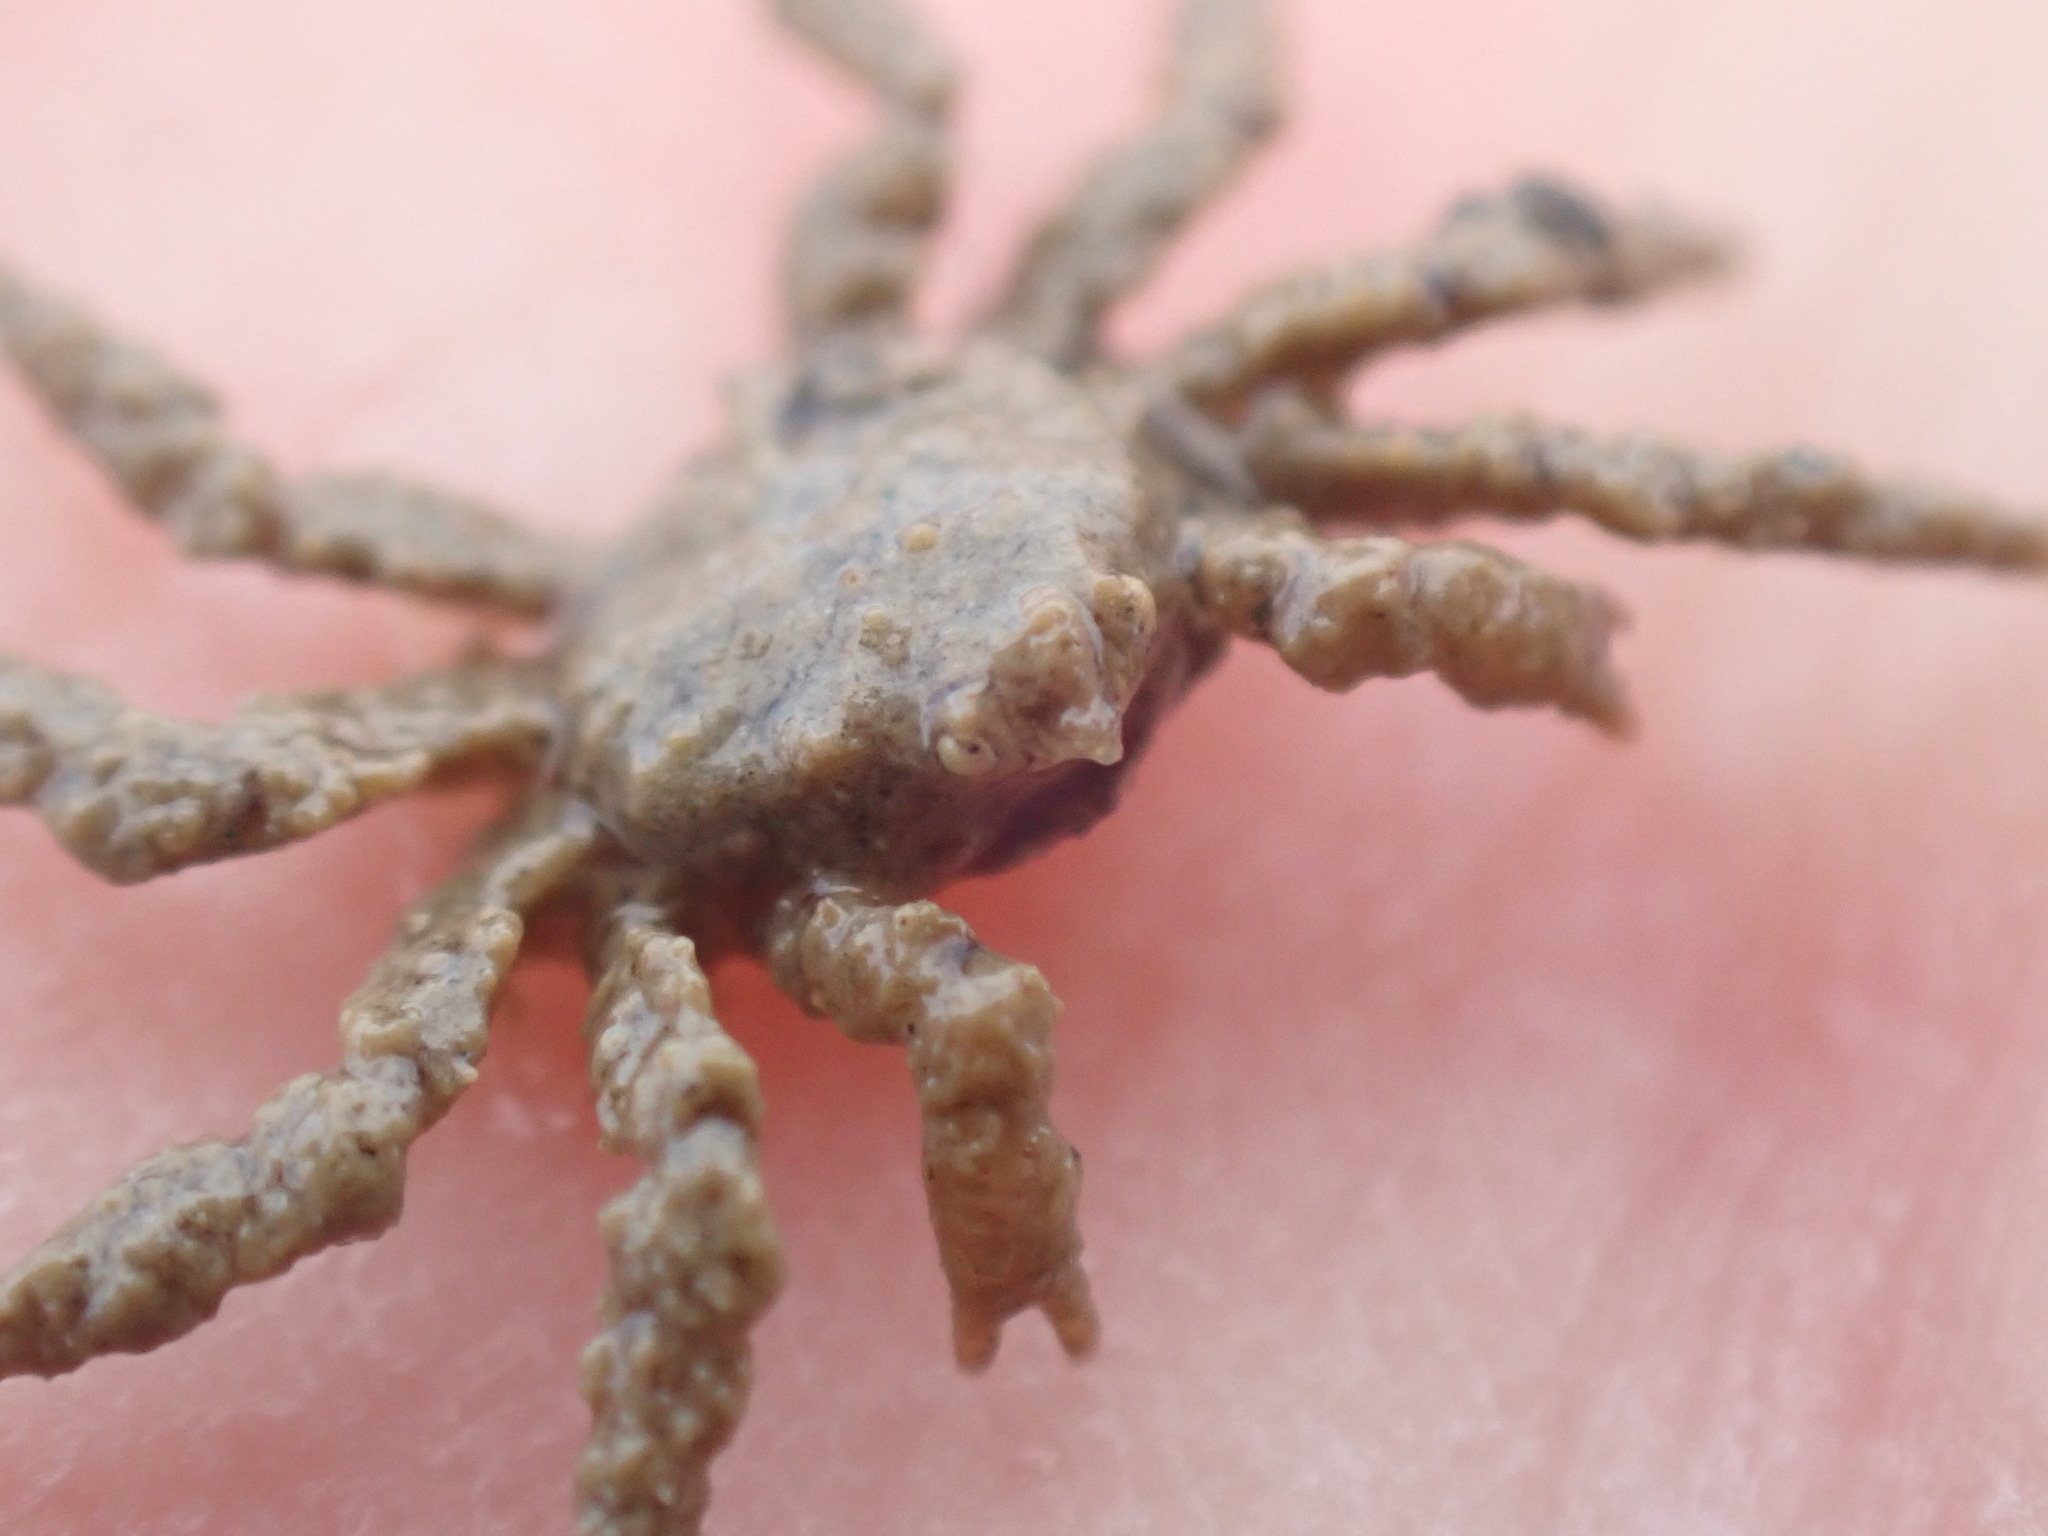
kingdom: Animalia
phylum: Arthropoda
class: Malacostraca
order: Decapoda
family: Hymenosomatidae
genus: Neohymenicus
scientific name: Neohymenicus pubescens
